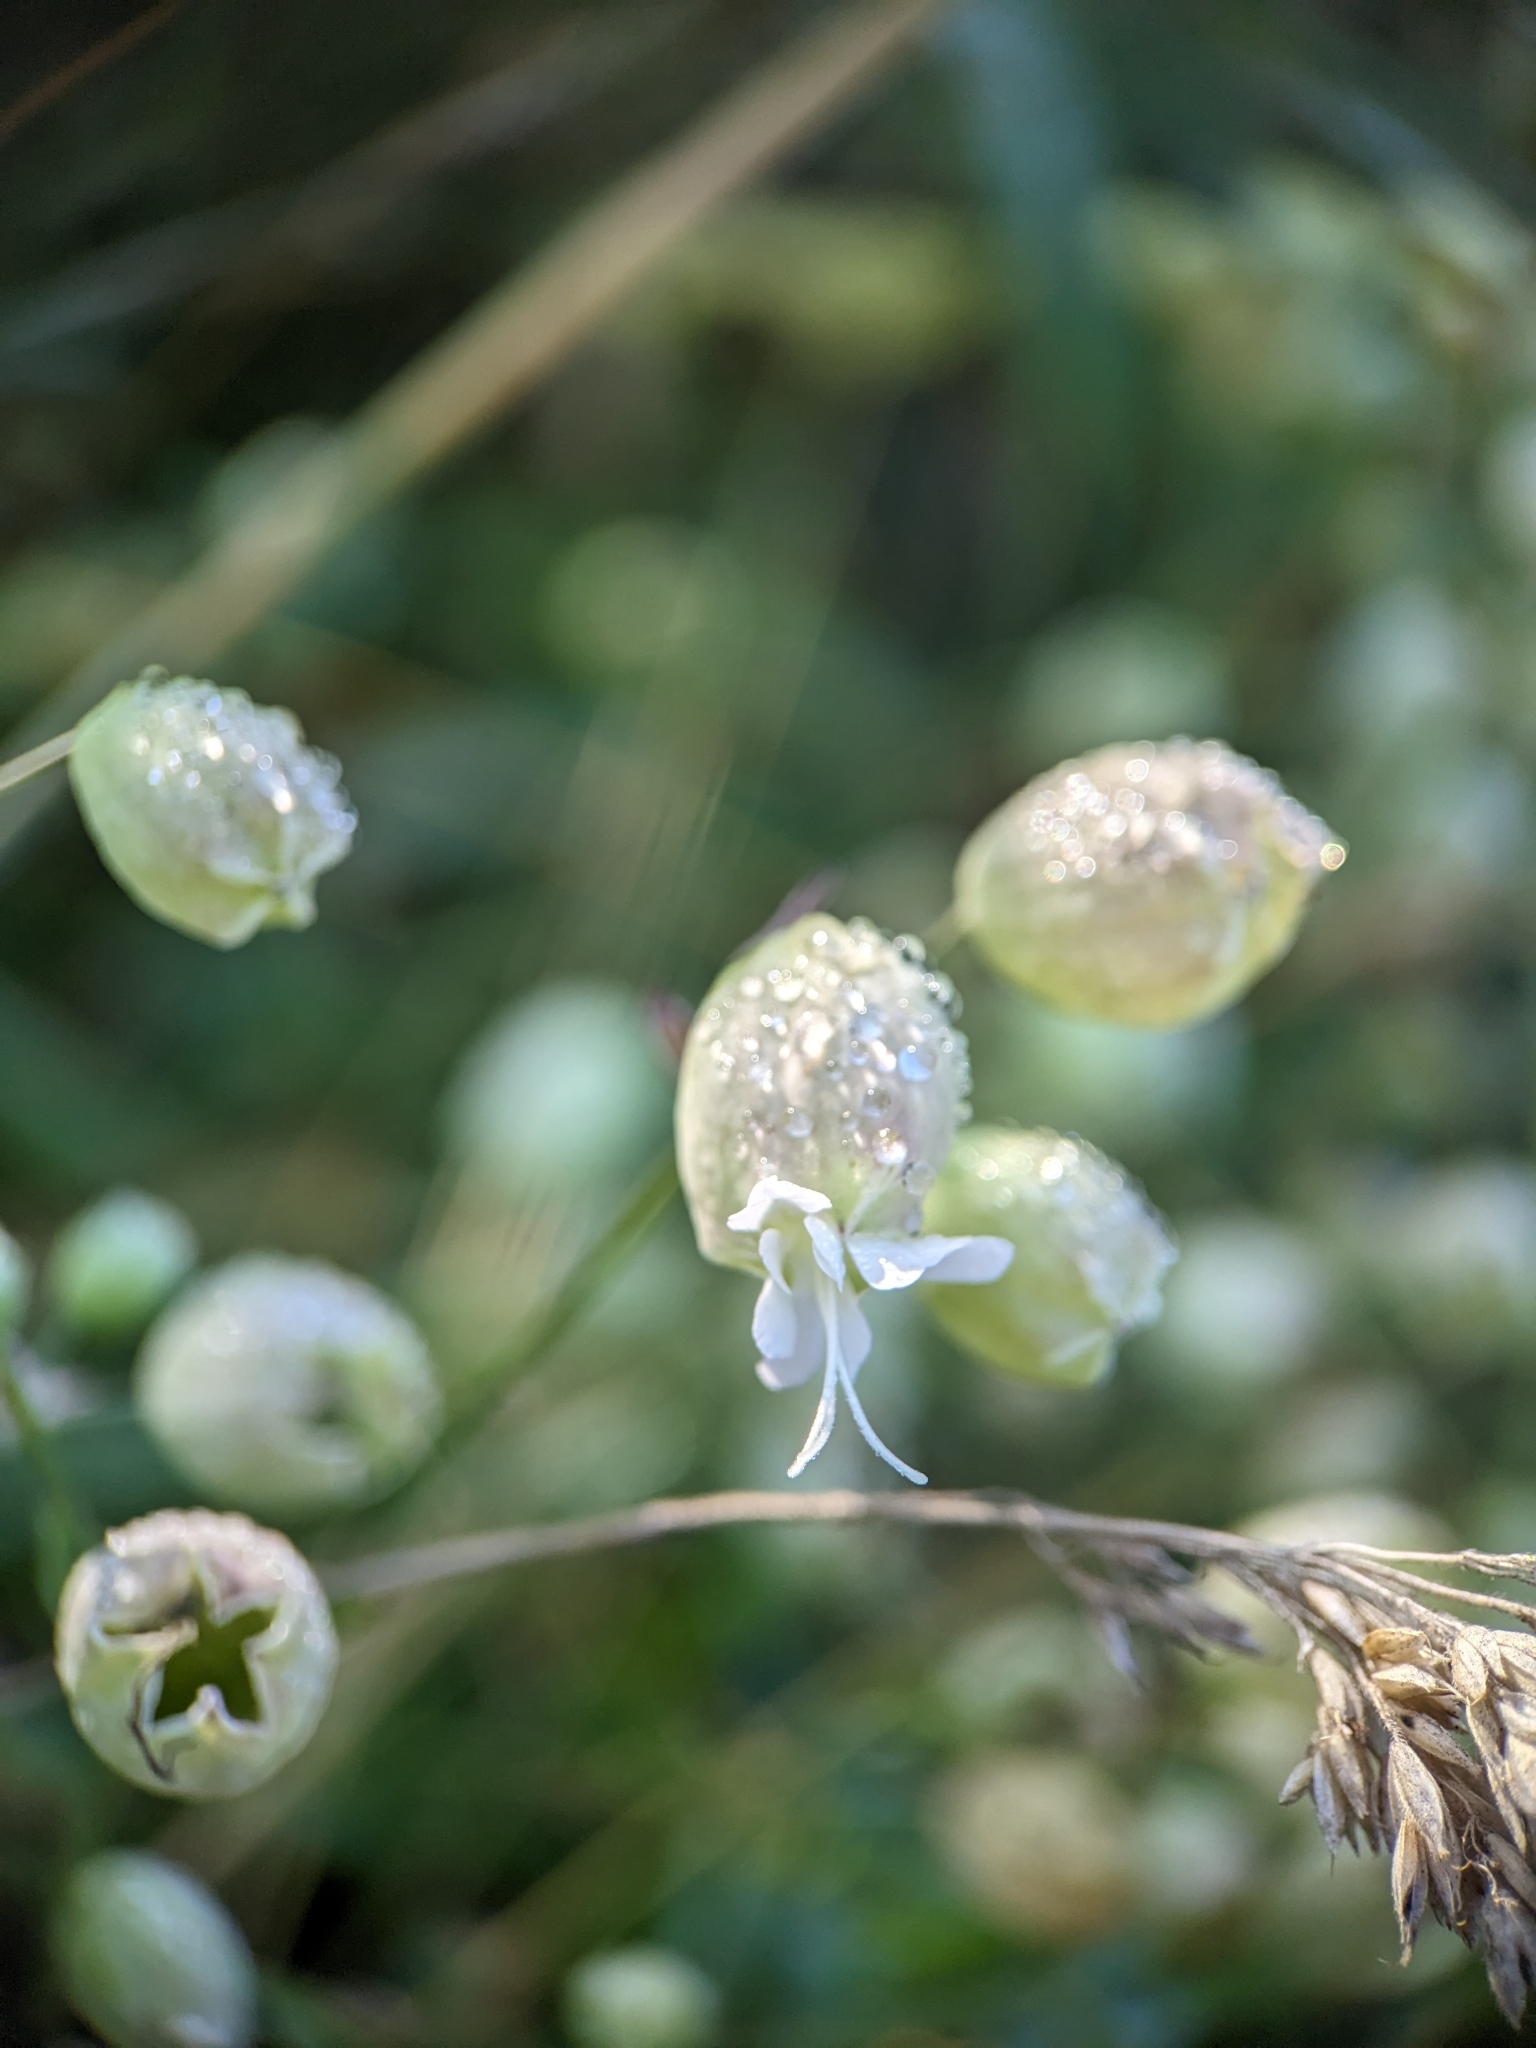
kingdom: Plantae
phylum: Tracheophyta
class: Magnoliopsida
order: Caryophyllales
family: Caryophyllaceae
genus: Silene
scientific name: Silene vulgaris
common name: Bladder campion
